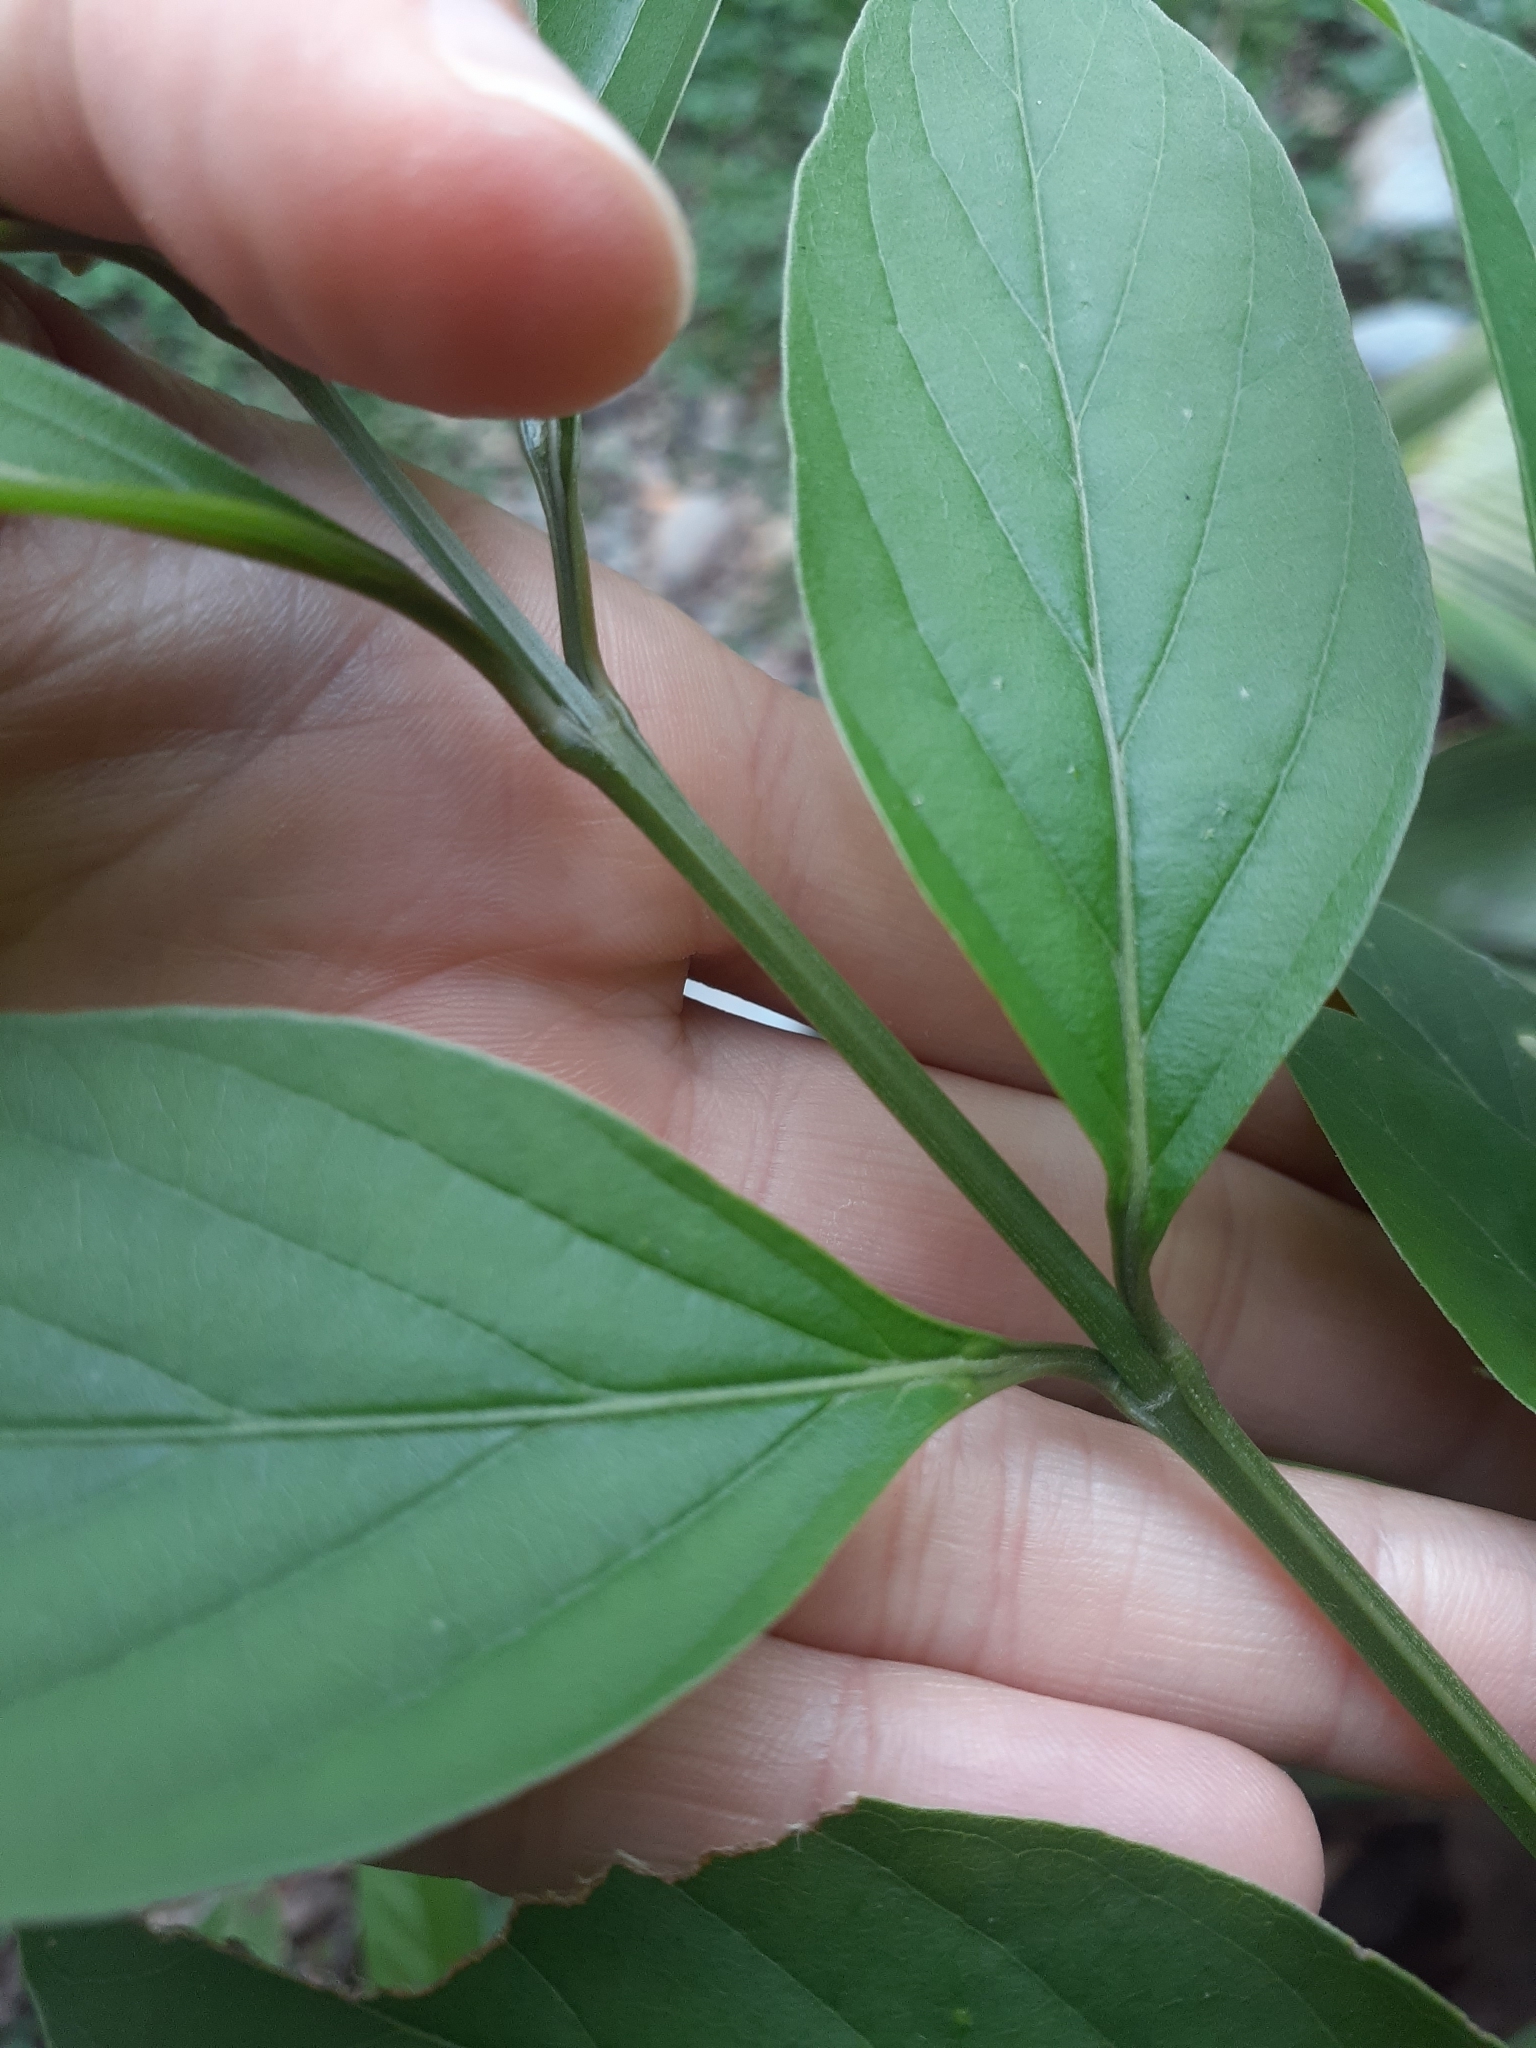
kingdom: Plantae
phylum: Tracheophyta
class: Magnoliopsida
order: Lamiales
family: Verbenaceae
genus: Citharexylum
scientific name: Citharexylum cooperi
